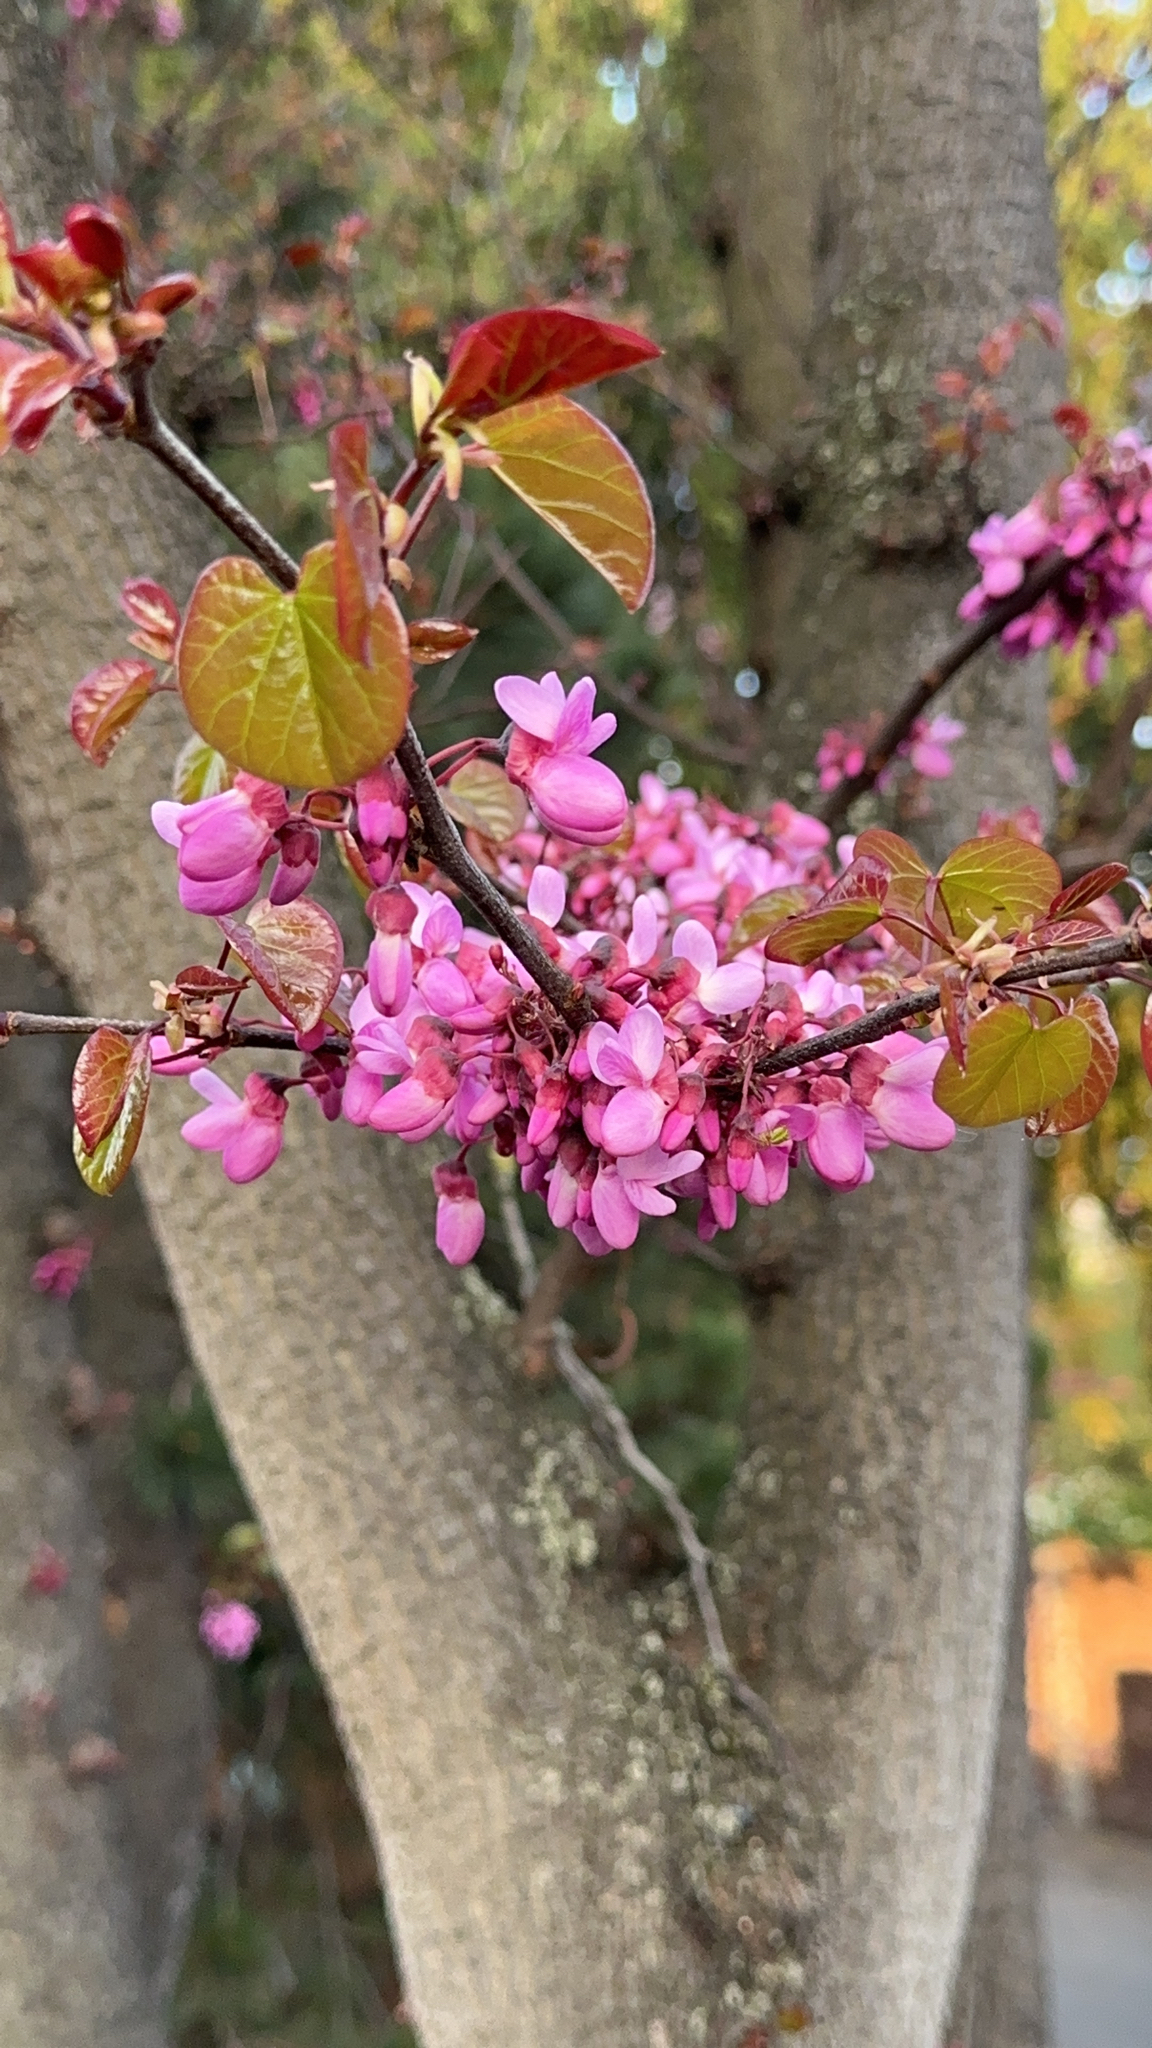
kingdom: Plantae
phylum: Tracheophyta
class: Magnoliopsida
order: Fabales
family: Fabaceae
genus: Cercis
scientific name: Cercis siliquastrum
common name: Judas tree
